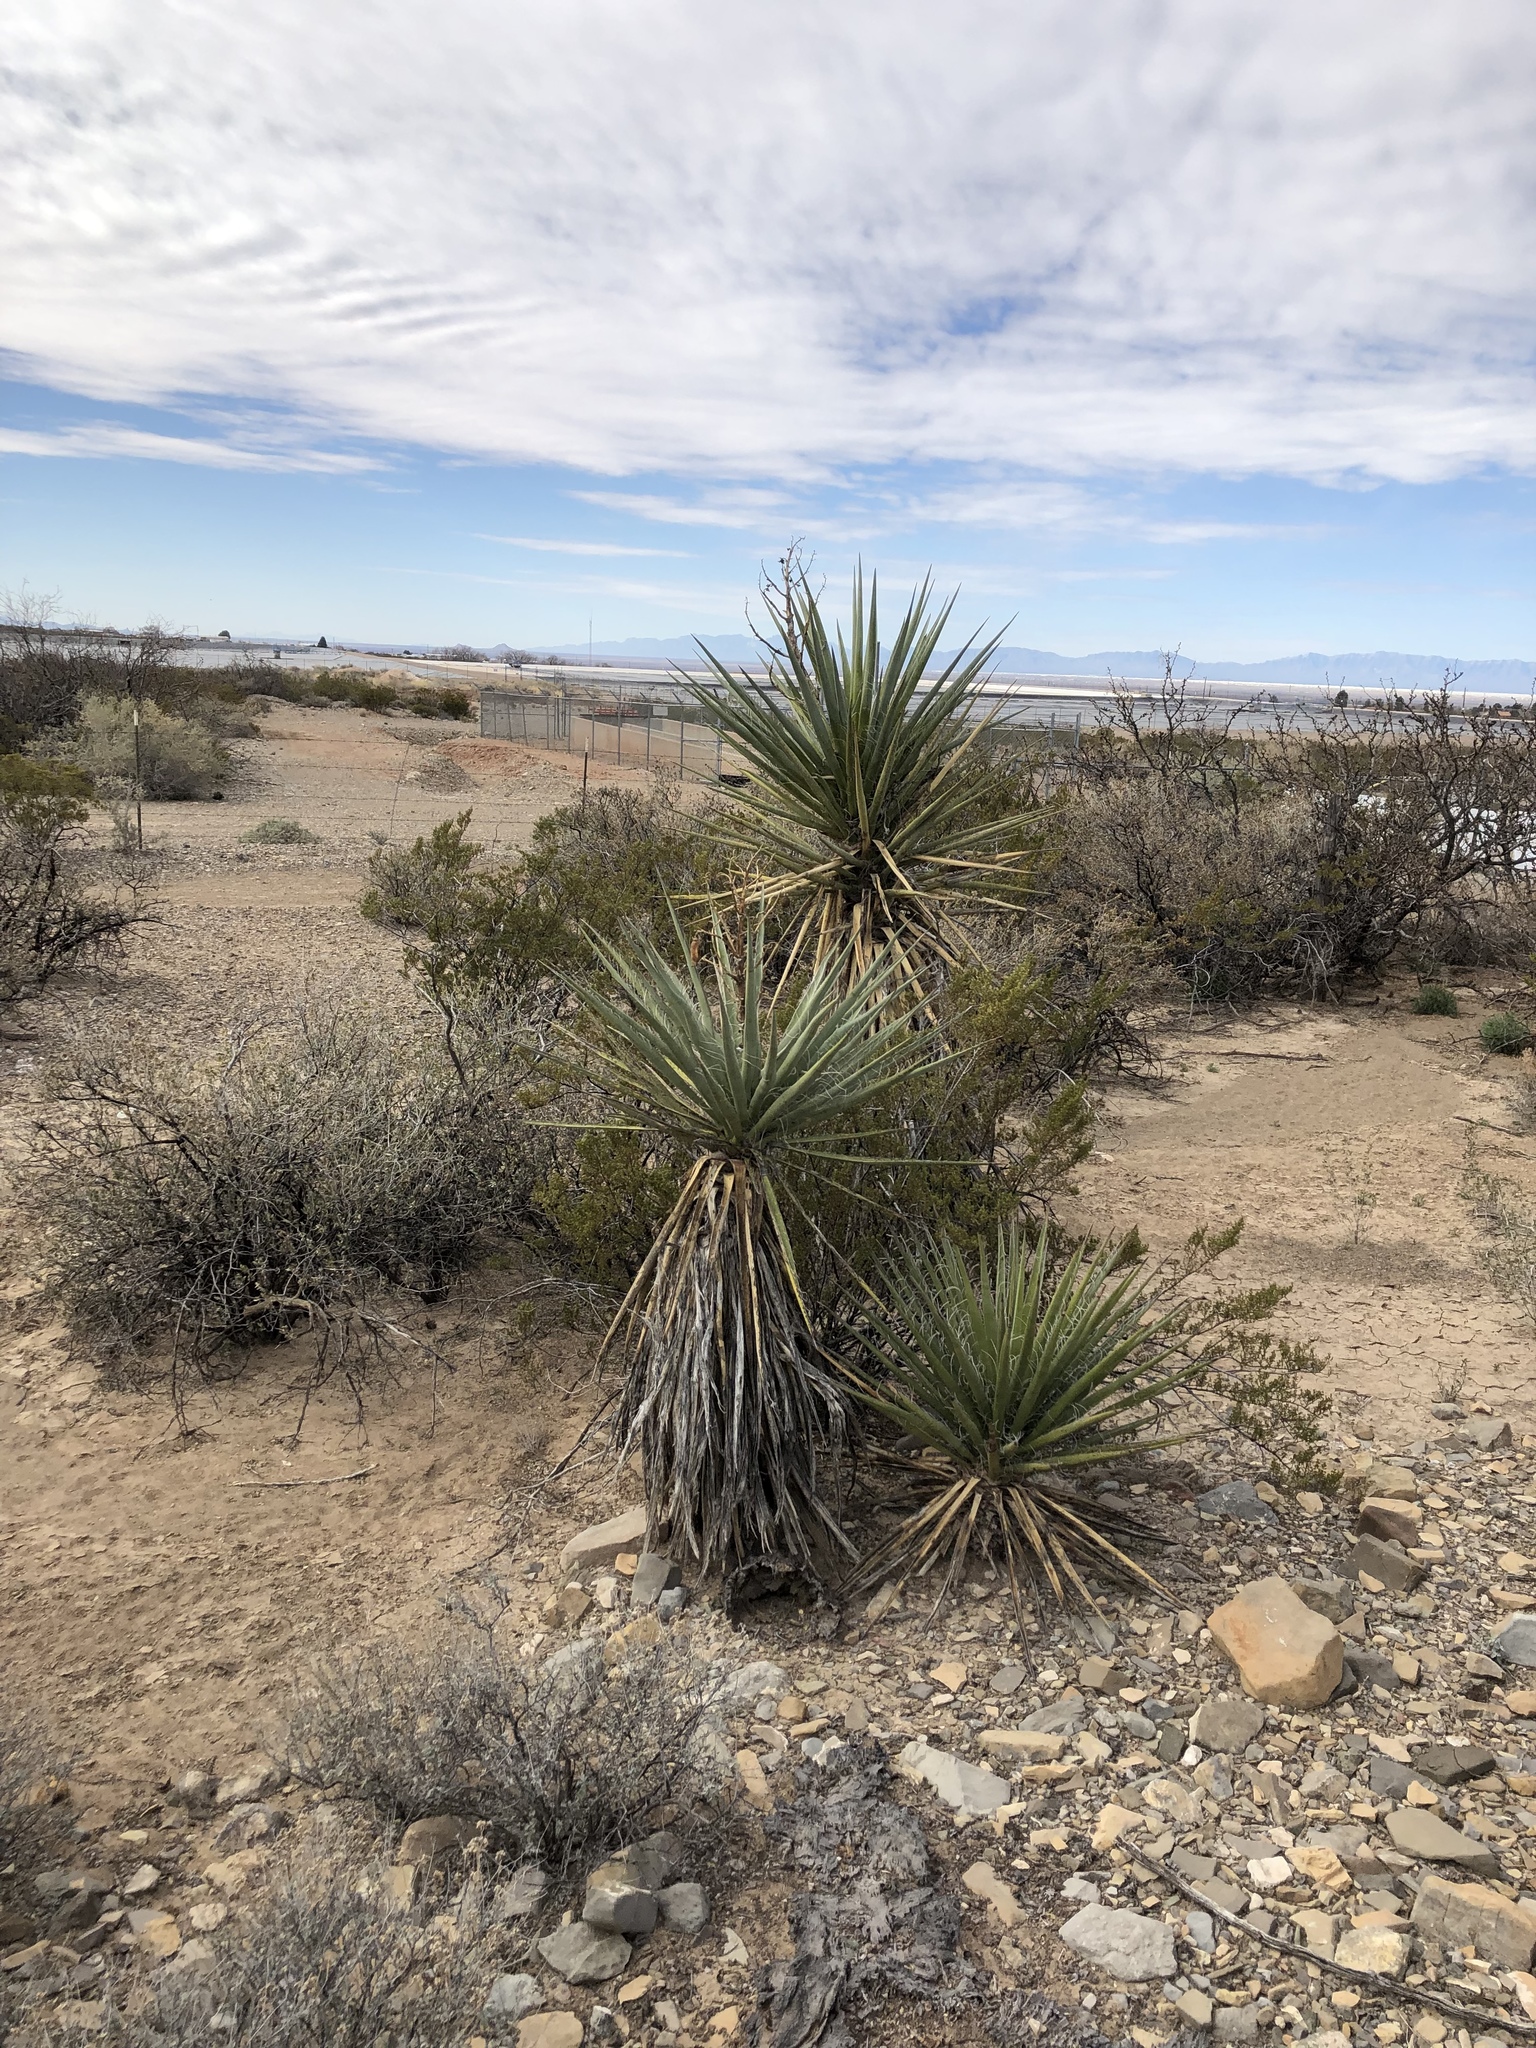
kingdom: Plantae
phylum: Tracheophyta
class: Liliopsida
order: Asparagales
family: Asparagaceae
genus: Yucca
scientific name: Yucca treculiana
